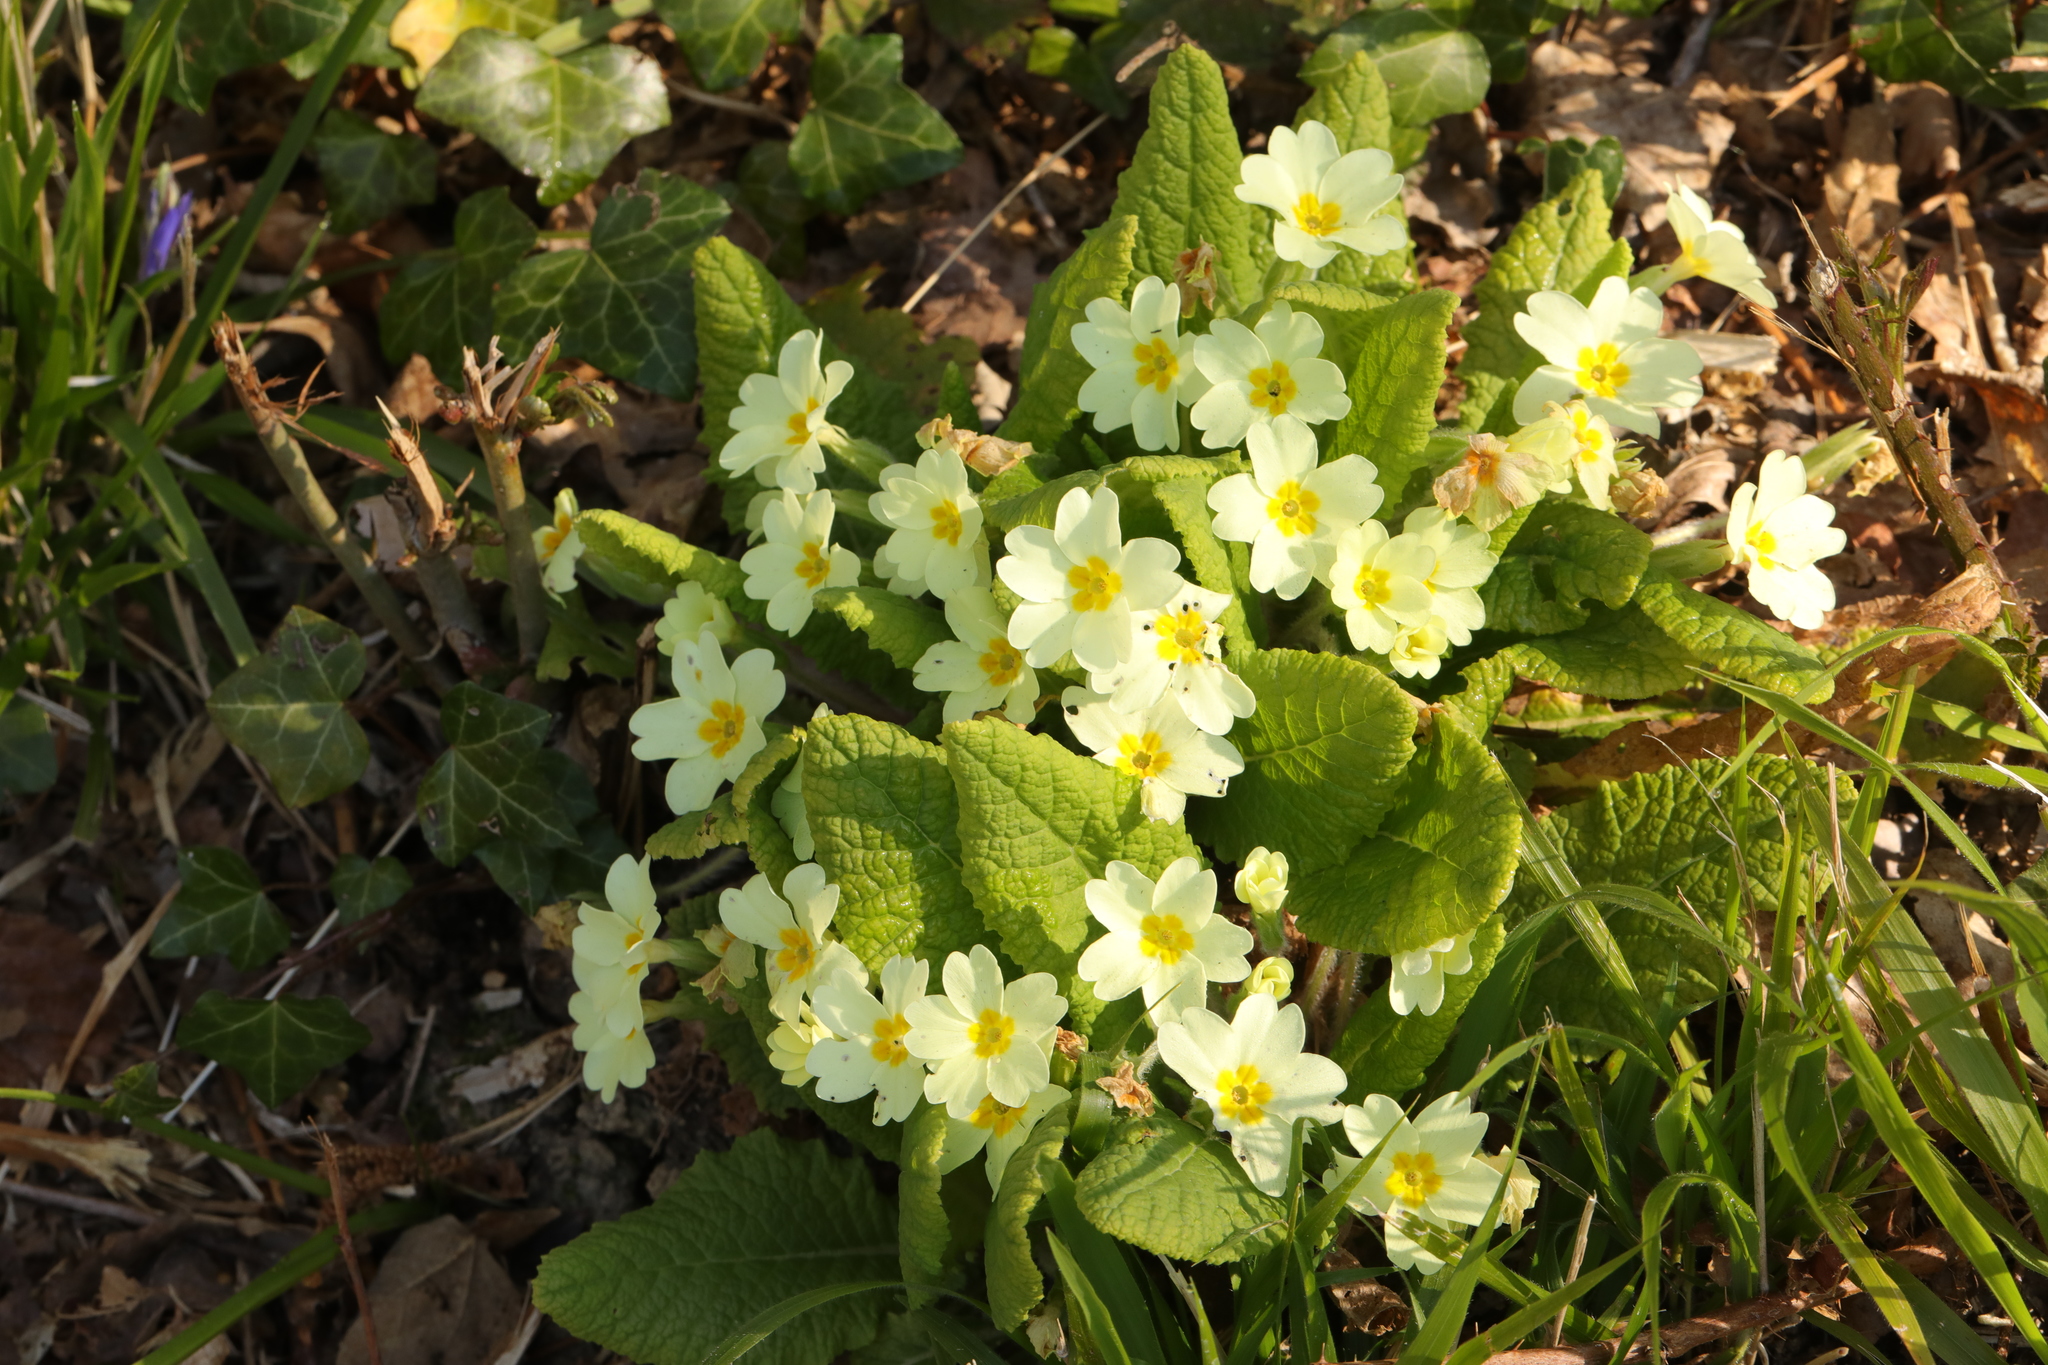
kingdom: Plantae
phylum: Tracheophyta
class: Magnoliopsida
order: Ericales
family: Primulaceae
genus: Primula
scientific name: Primula vulgaris
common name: Primrose
